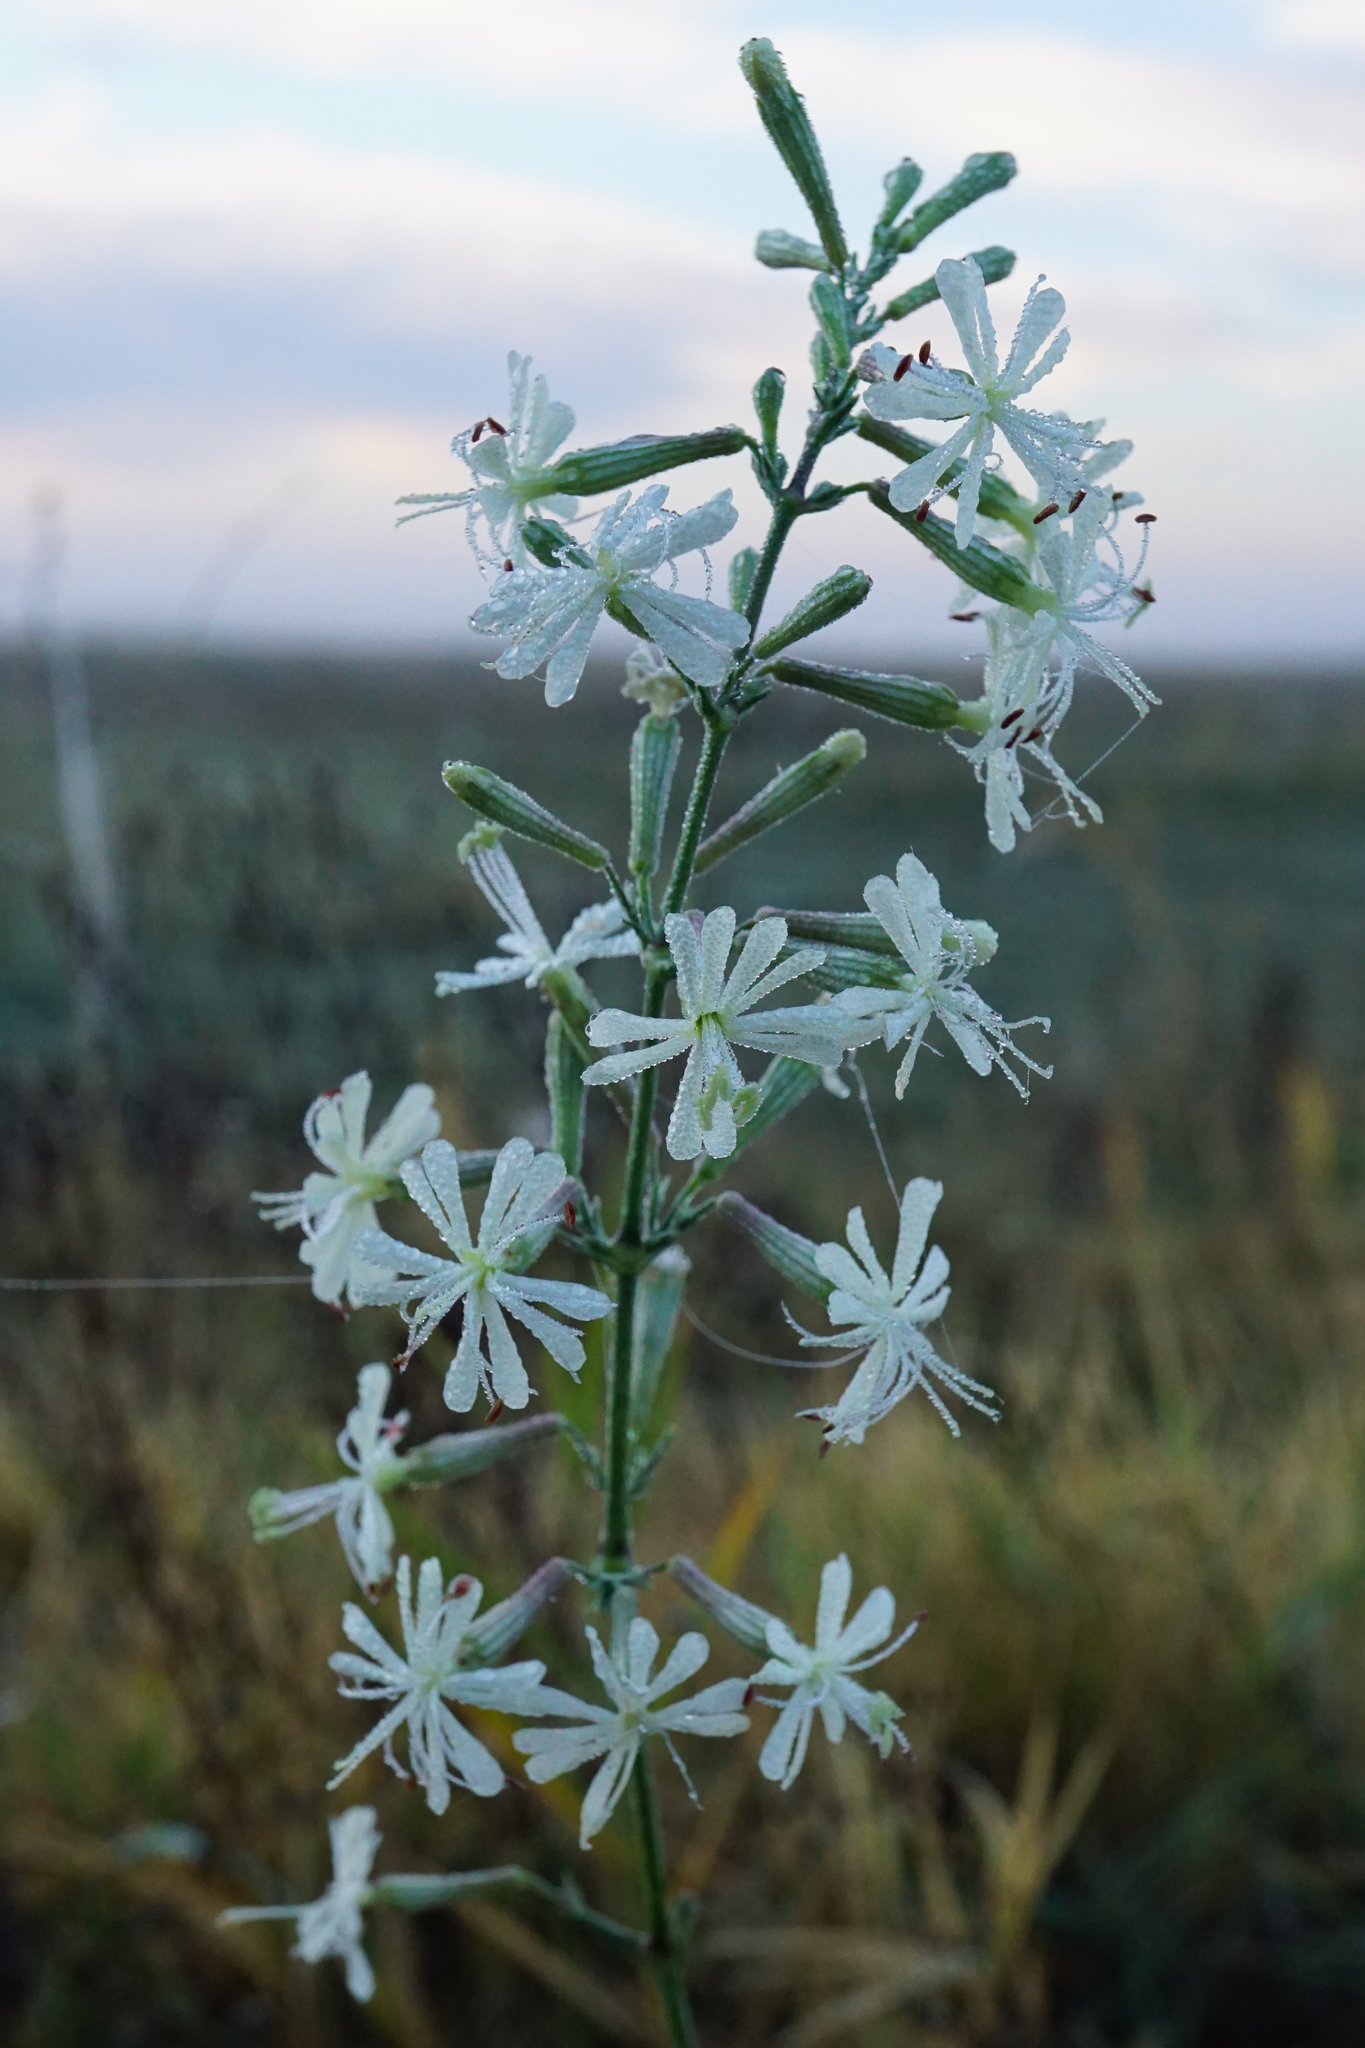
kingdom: Plantae
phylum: Tracheophyta
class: Magnoliopsida
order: Caryophyllales
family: Caryophyllaceae
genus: Silene
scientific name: Silene multiflora
